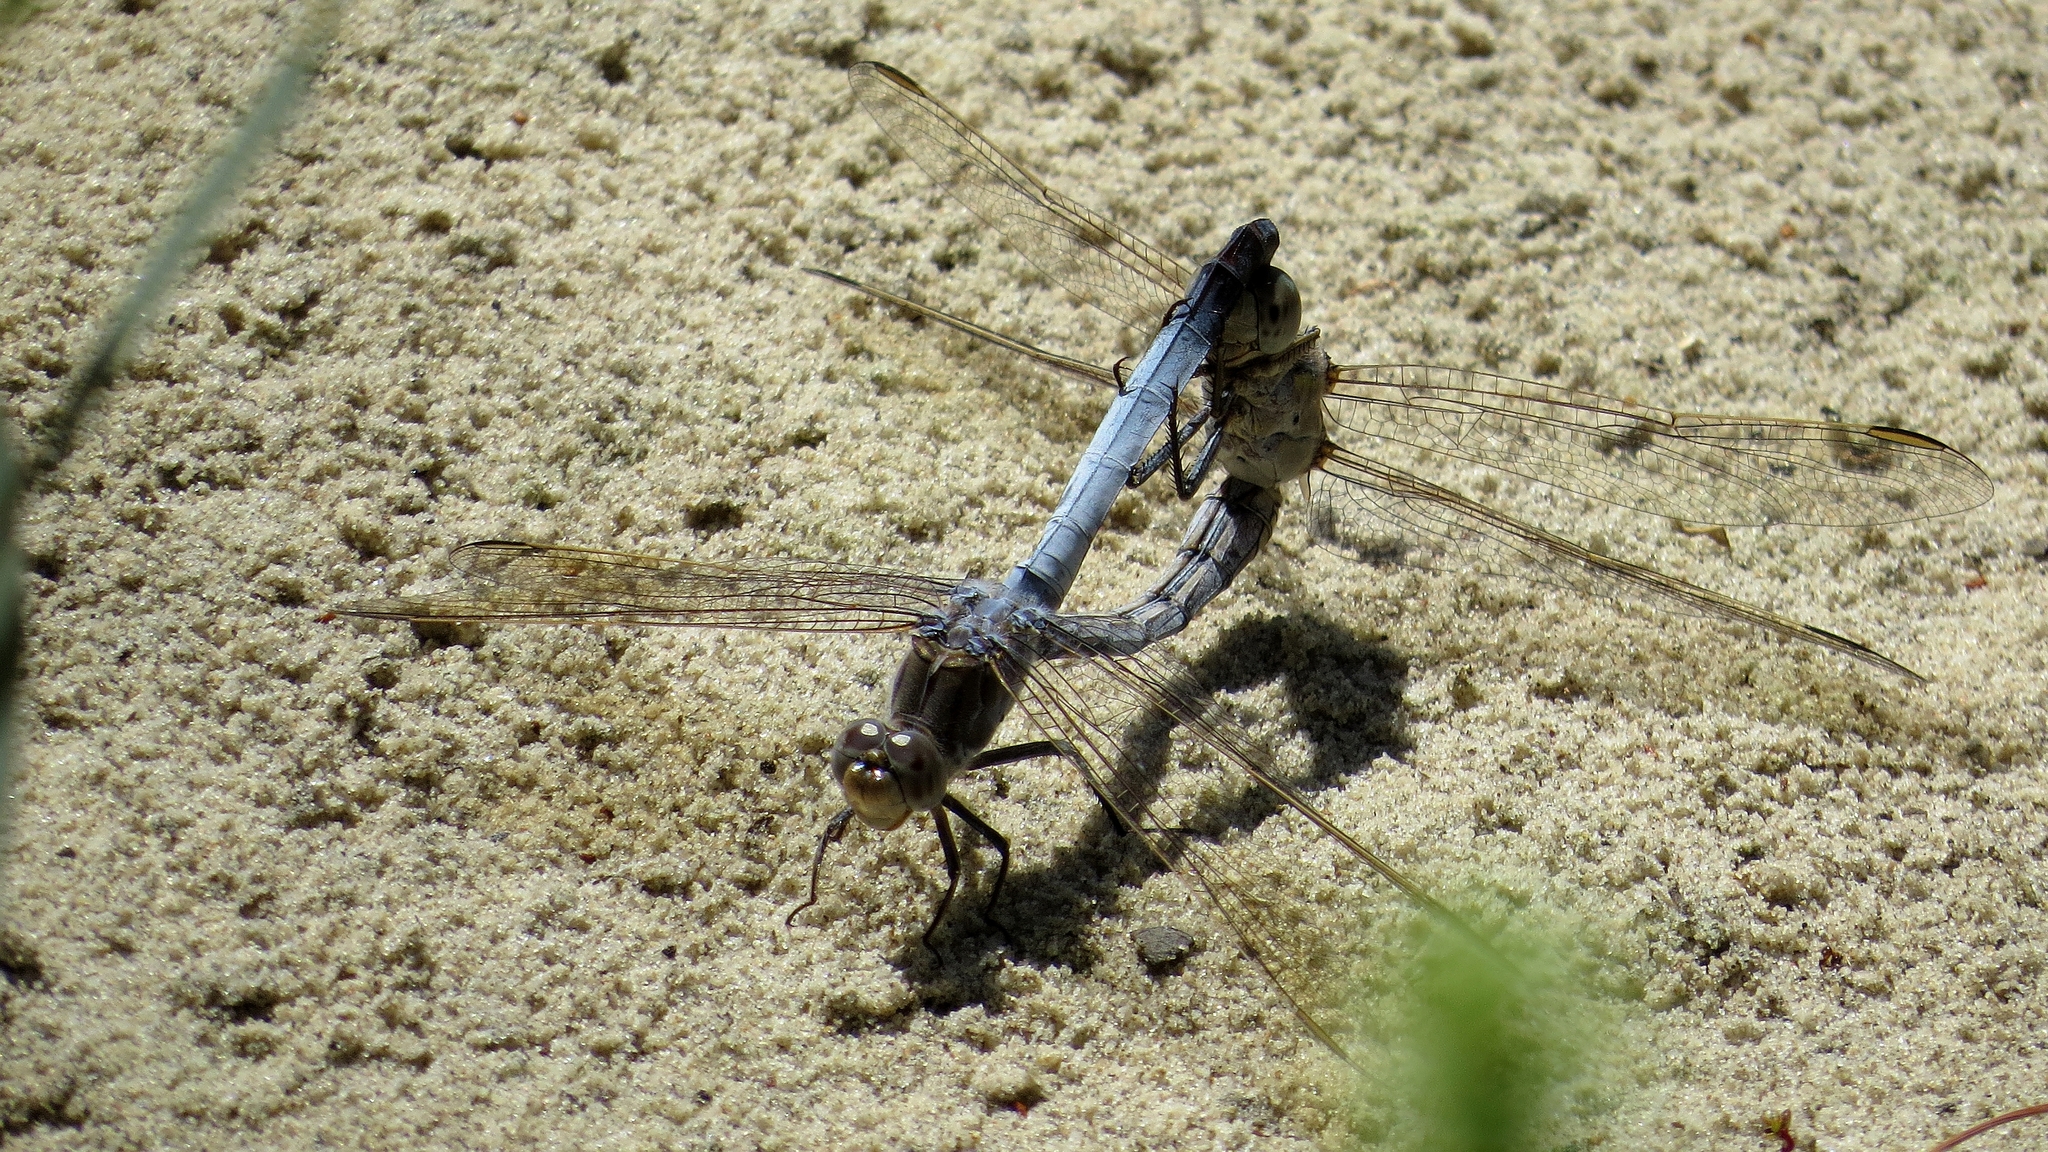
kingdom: Animalia
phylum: Arthropoda
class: Insecta
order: Odonata
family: Libellulidae
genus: Orthetrum
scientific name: Orthetrum caledonicum
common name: Blue skimmer
